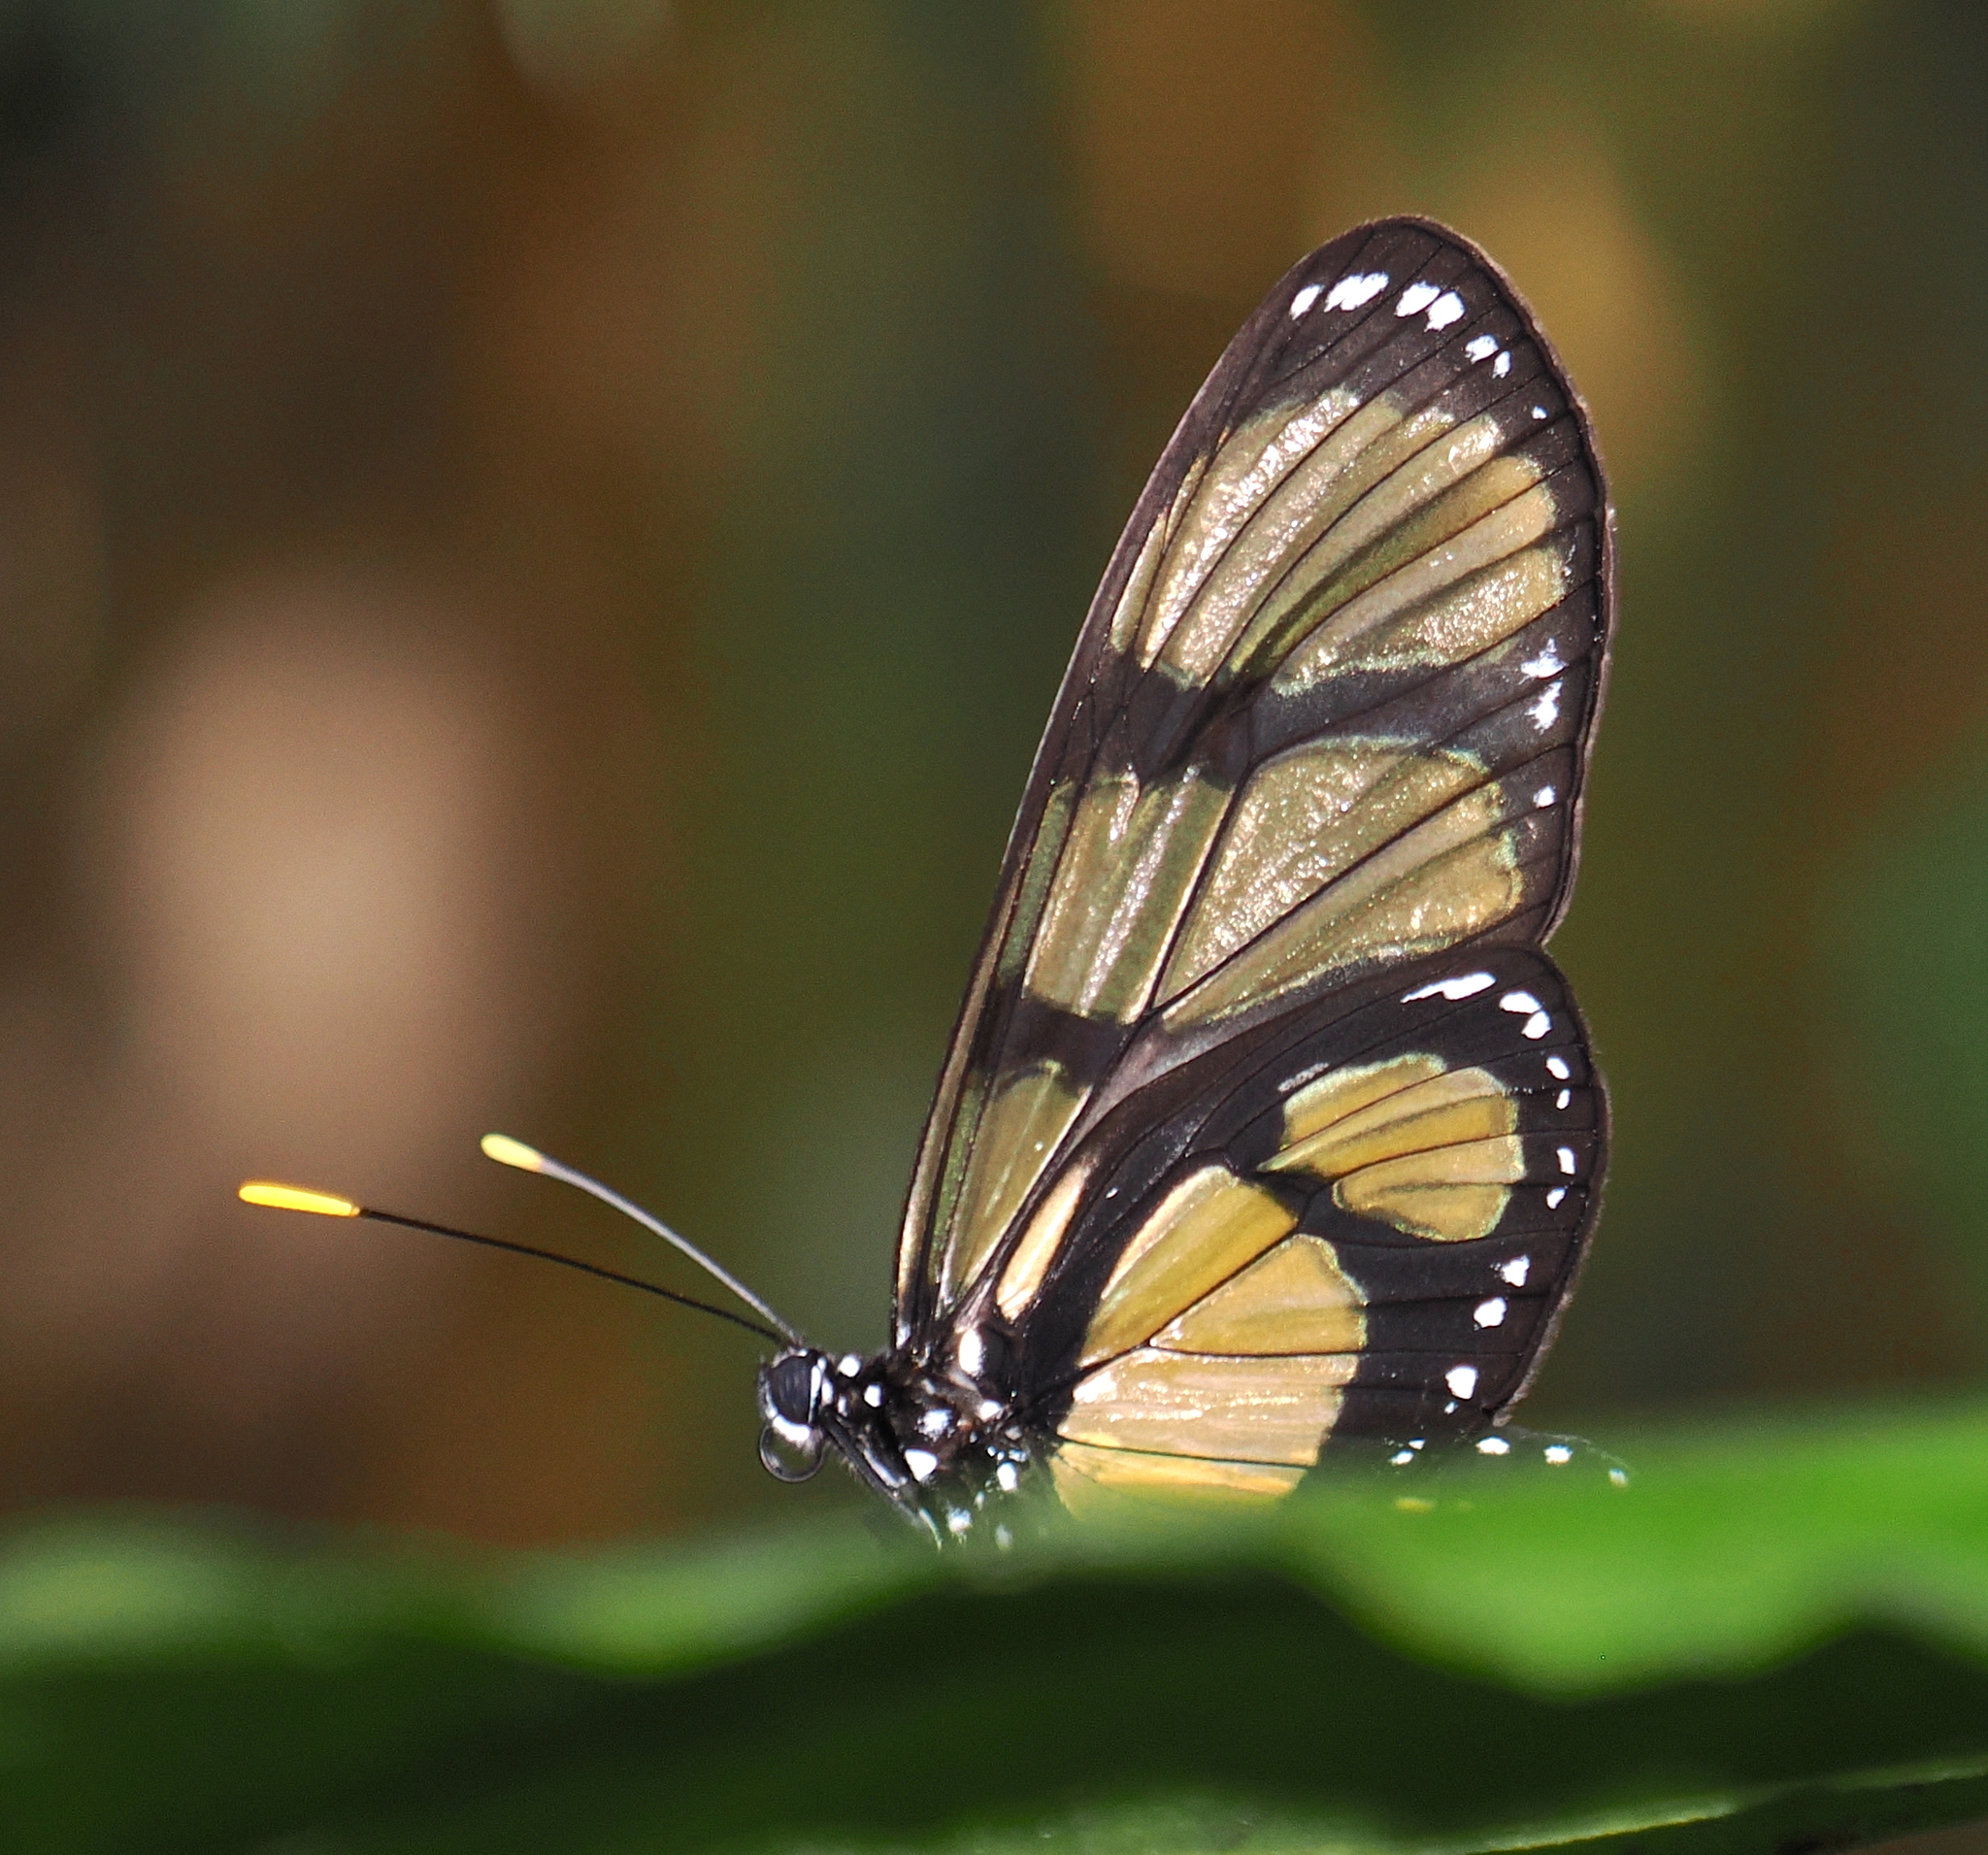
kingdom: Animalia
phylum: Arthropoda
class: Insecta
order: Lepidoptera
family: Nymphalidae
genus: Methona
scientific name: Methona confusa
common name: Confusa tigerwing
